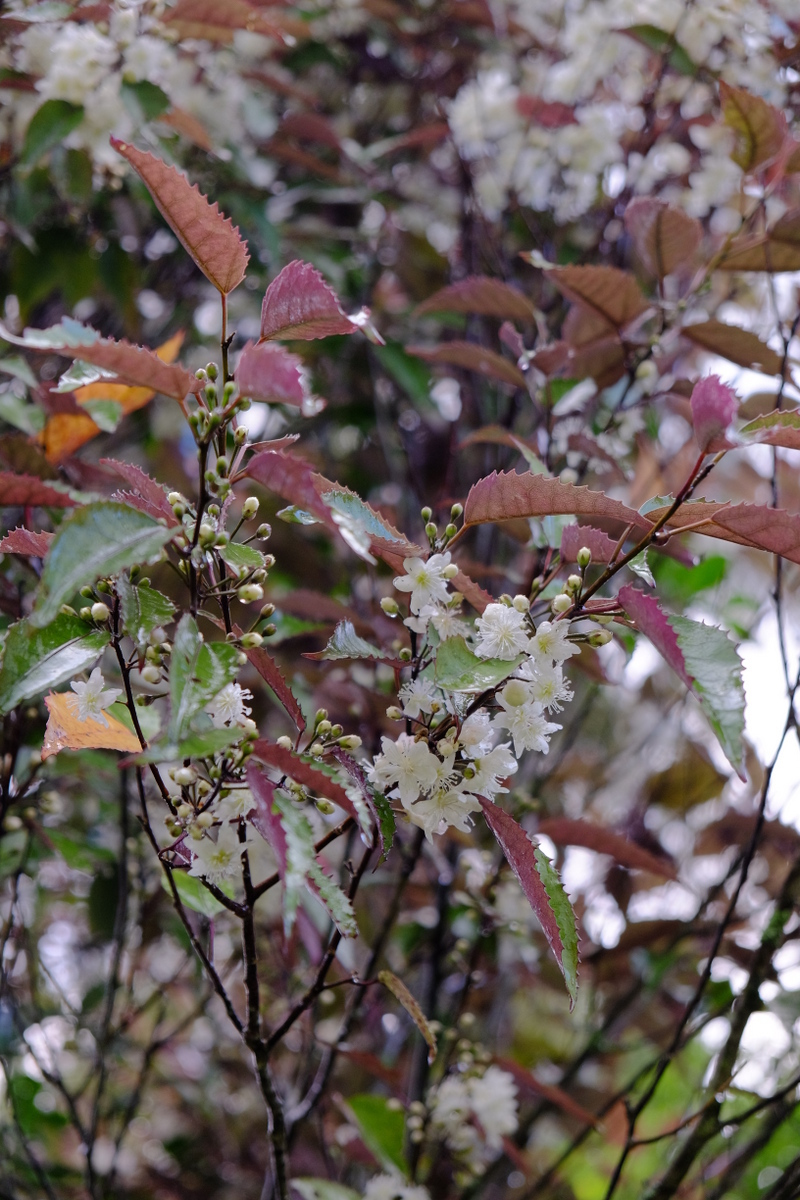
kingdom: Plantae
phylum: Tracheophyta
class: Magnoliopsida
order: Malvales
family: Malvaceae
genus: Hoheria
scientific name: Hoheria populnea
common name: Lacebark
